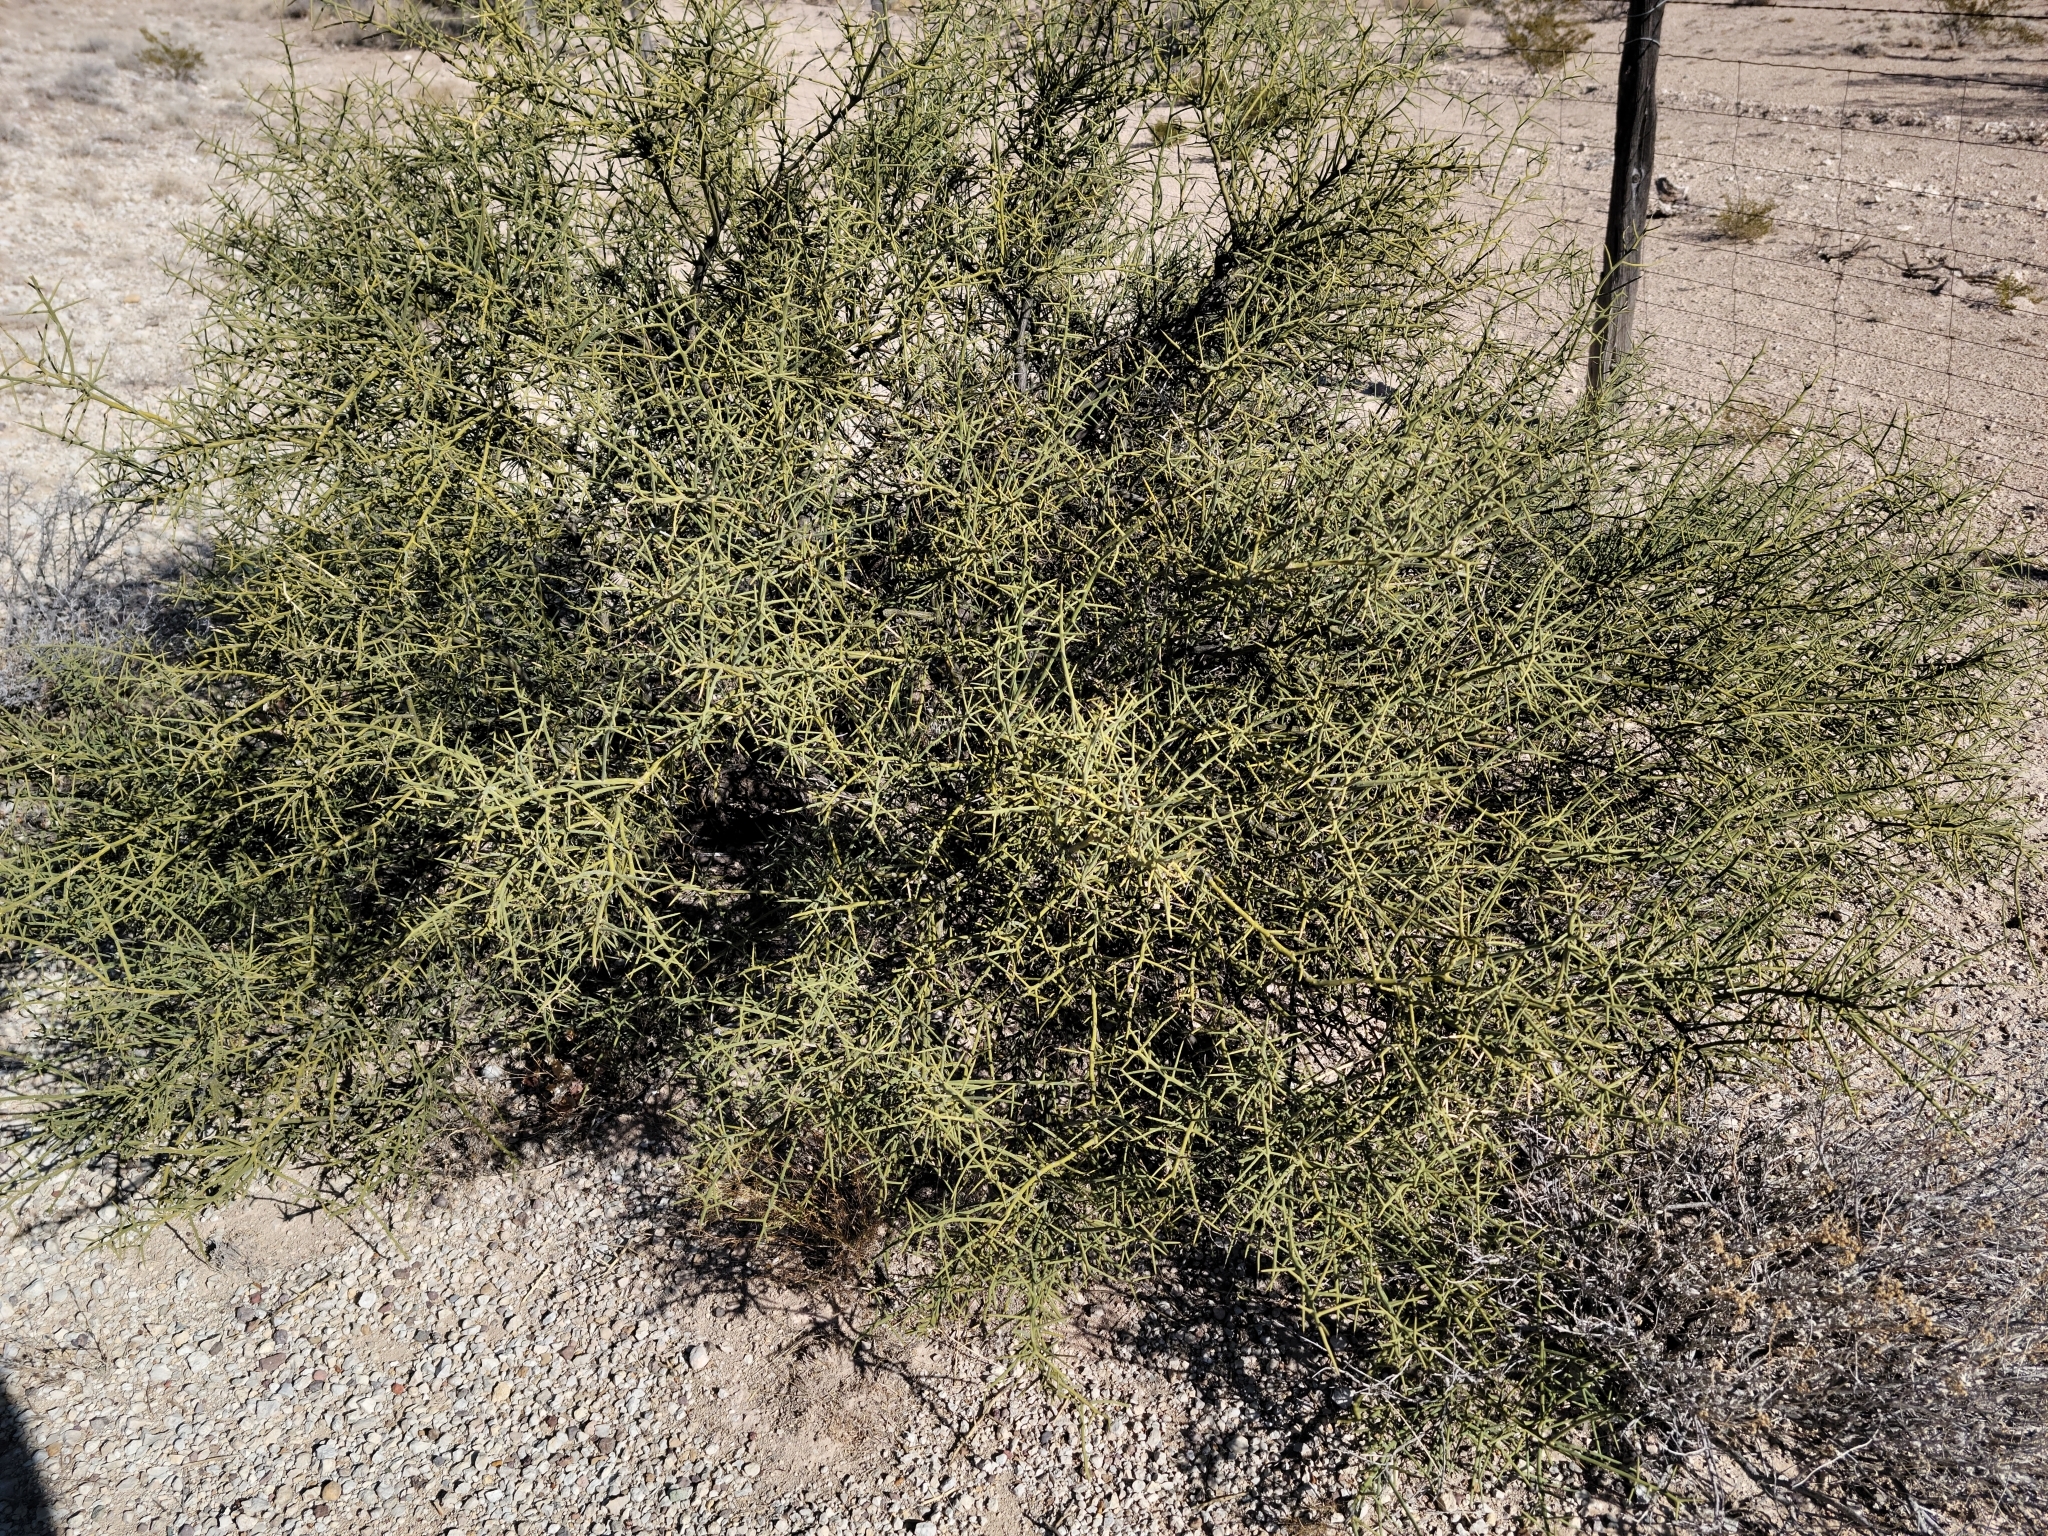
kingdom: Plantae
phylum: Tracheophyta
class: Magnoliopsida
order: Brassicales
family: Koeberliniaceae
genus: Koeberlinia
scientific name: Koeberlinia spinosa
